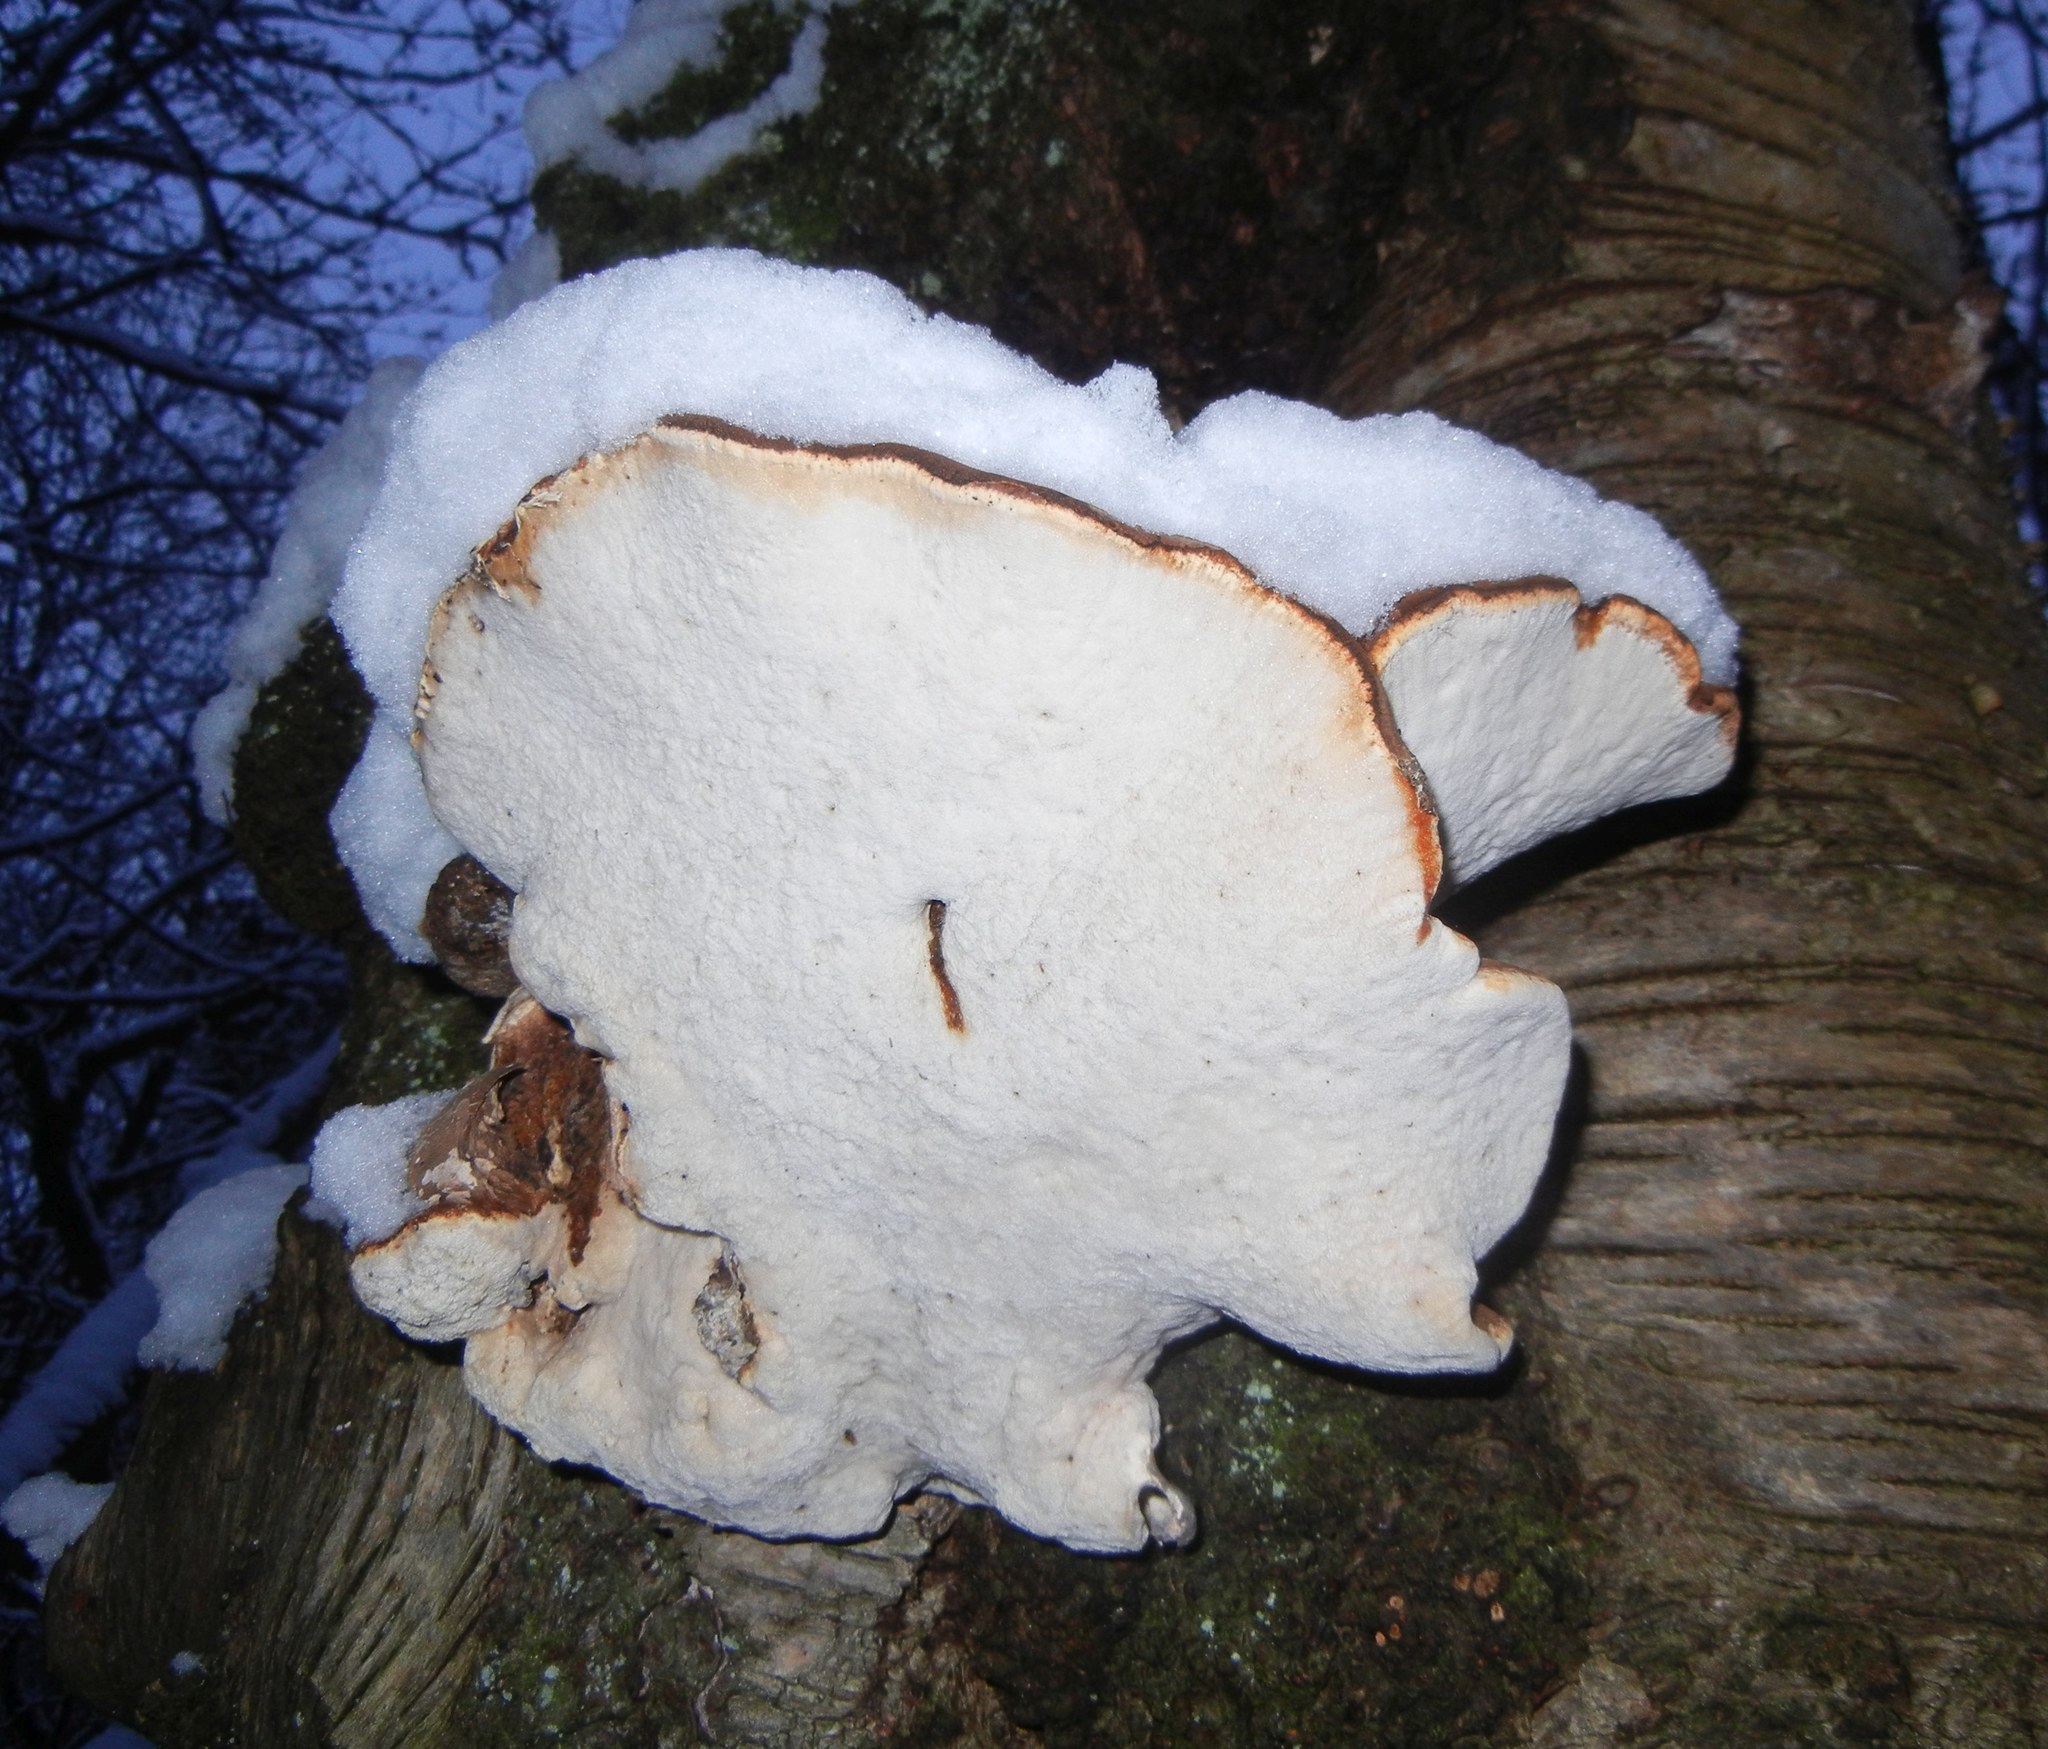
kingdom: Fungi
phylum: Basidiomycota
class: Agaricomycetes
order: Polyporales
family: Fomitopsidaceae
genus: Fomitopsis
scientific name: Fomitopsis betulina
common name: Birch polypore
